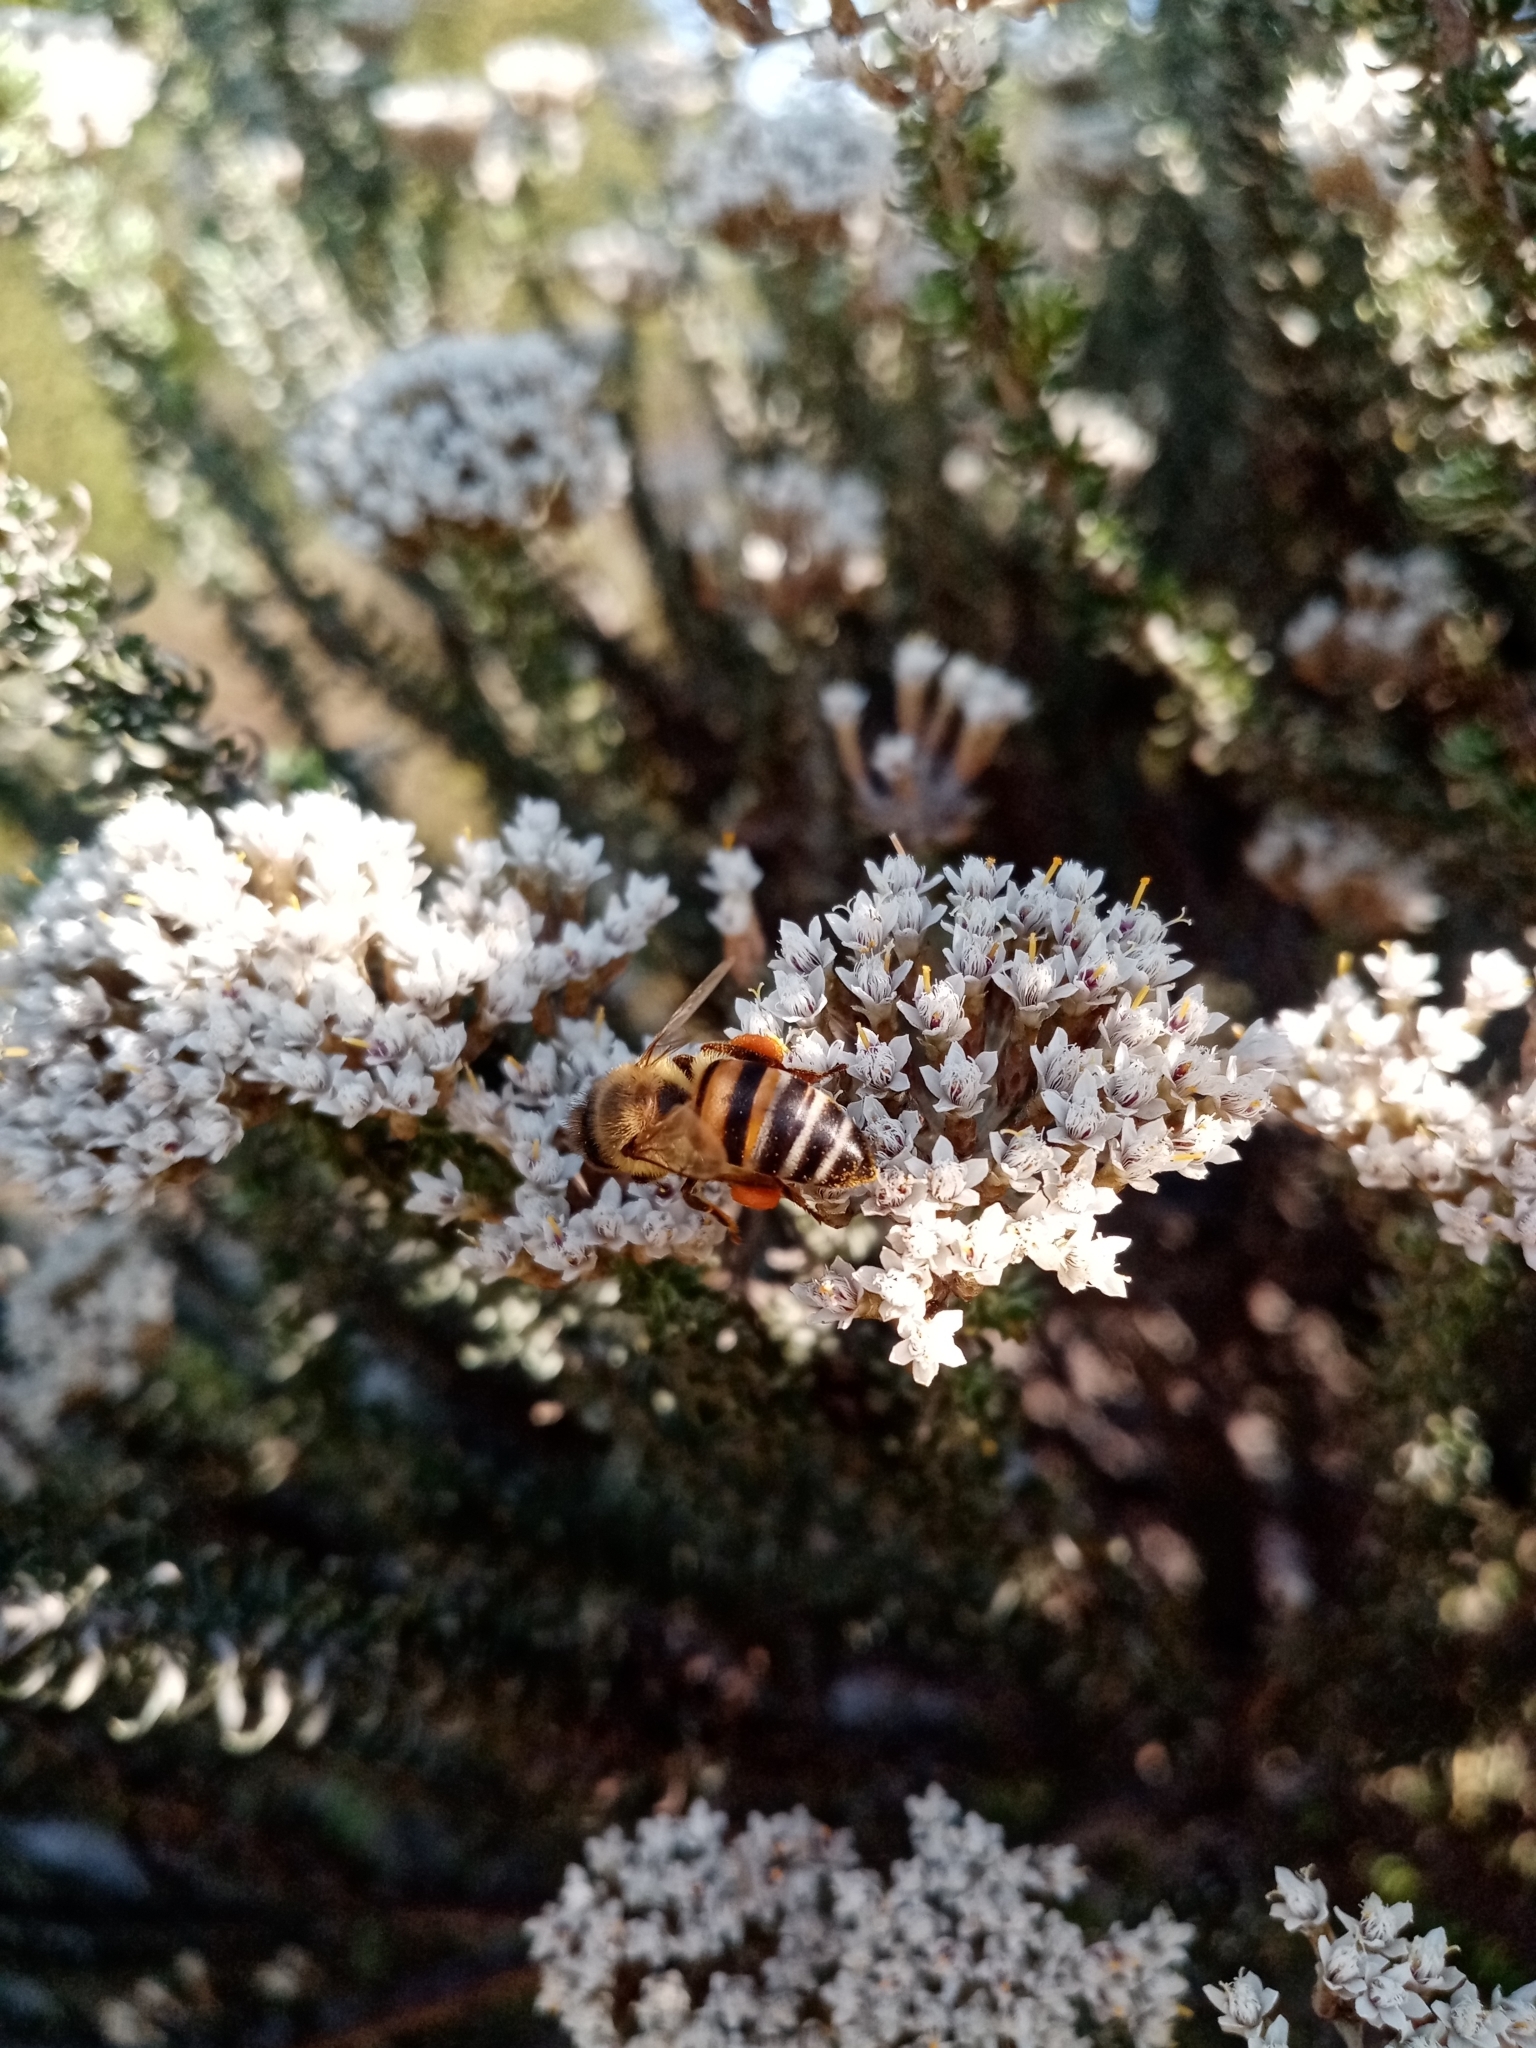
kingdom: Animalia
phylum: Arthropoda
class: Insecta
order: Hymenoptera
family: Apidae
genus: Apis
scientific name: Apis mellifera
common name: Honey bee
